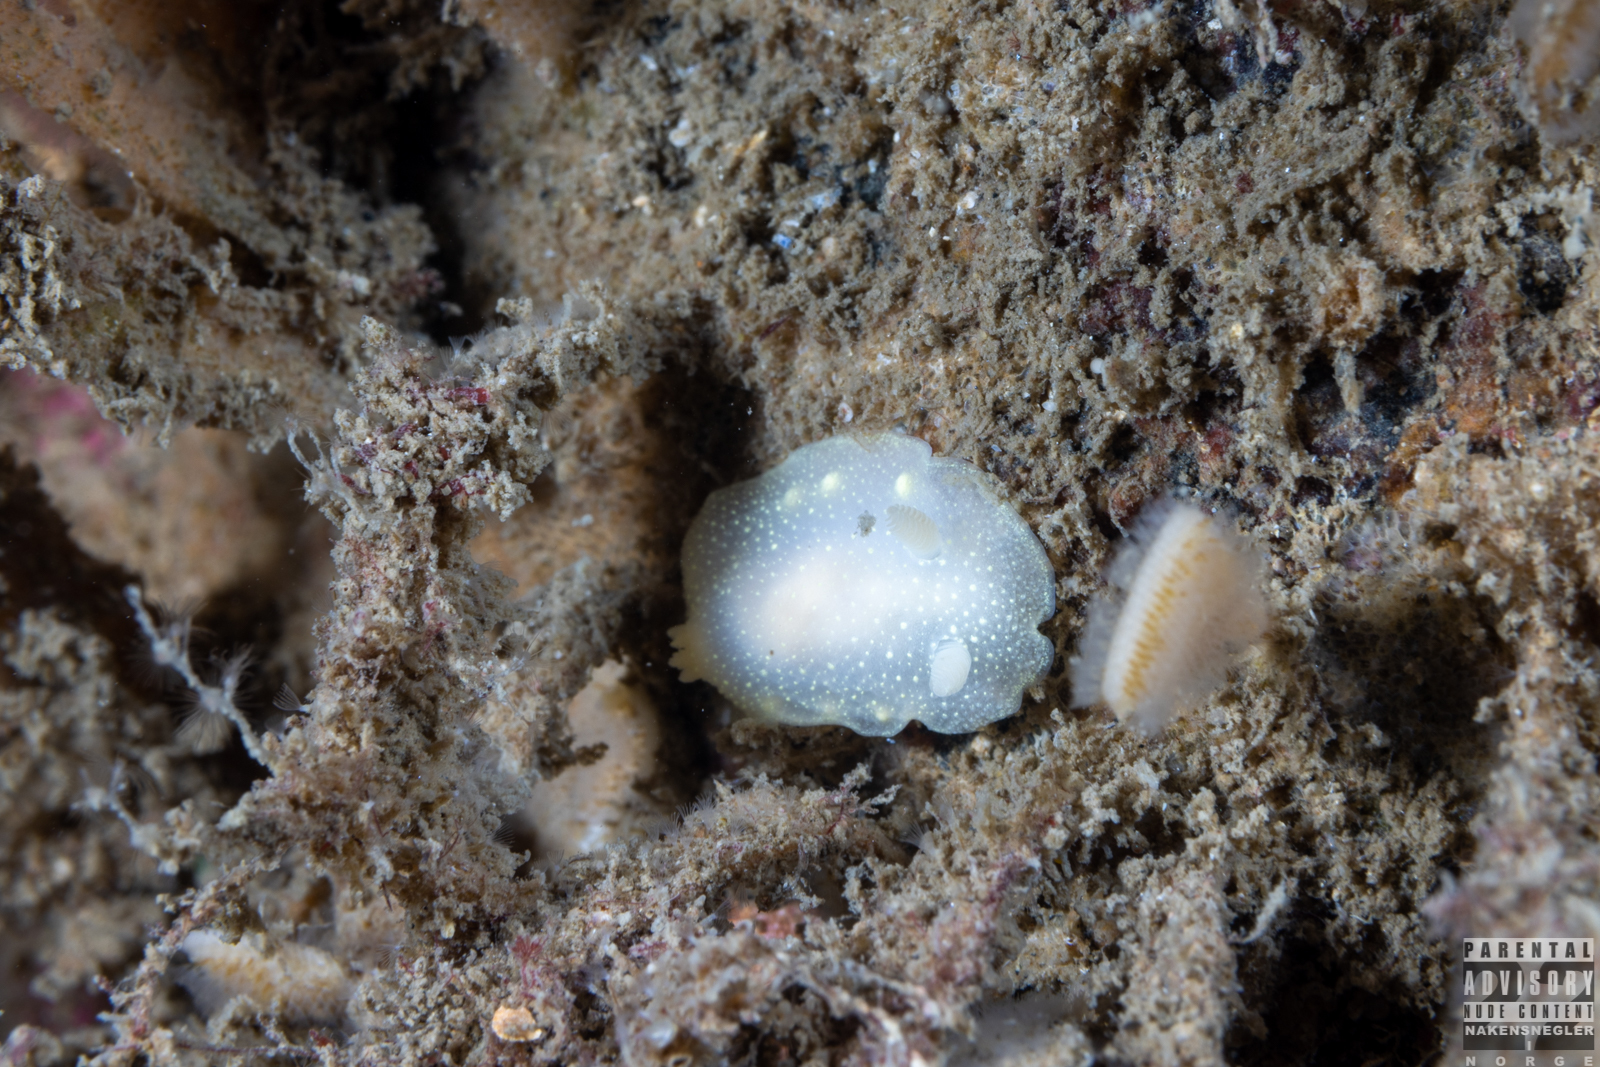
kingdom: Animalia
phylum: Mollusca
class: Gastropoda
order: Nudibranchia
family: Cadlinidae
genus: Cadlina
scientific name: Cadlina laevis
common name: White atlantic cadlina
